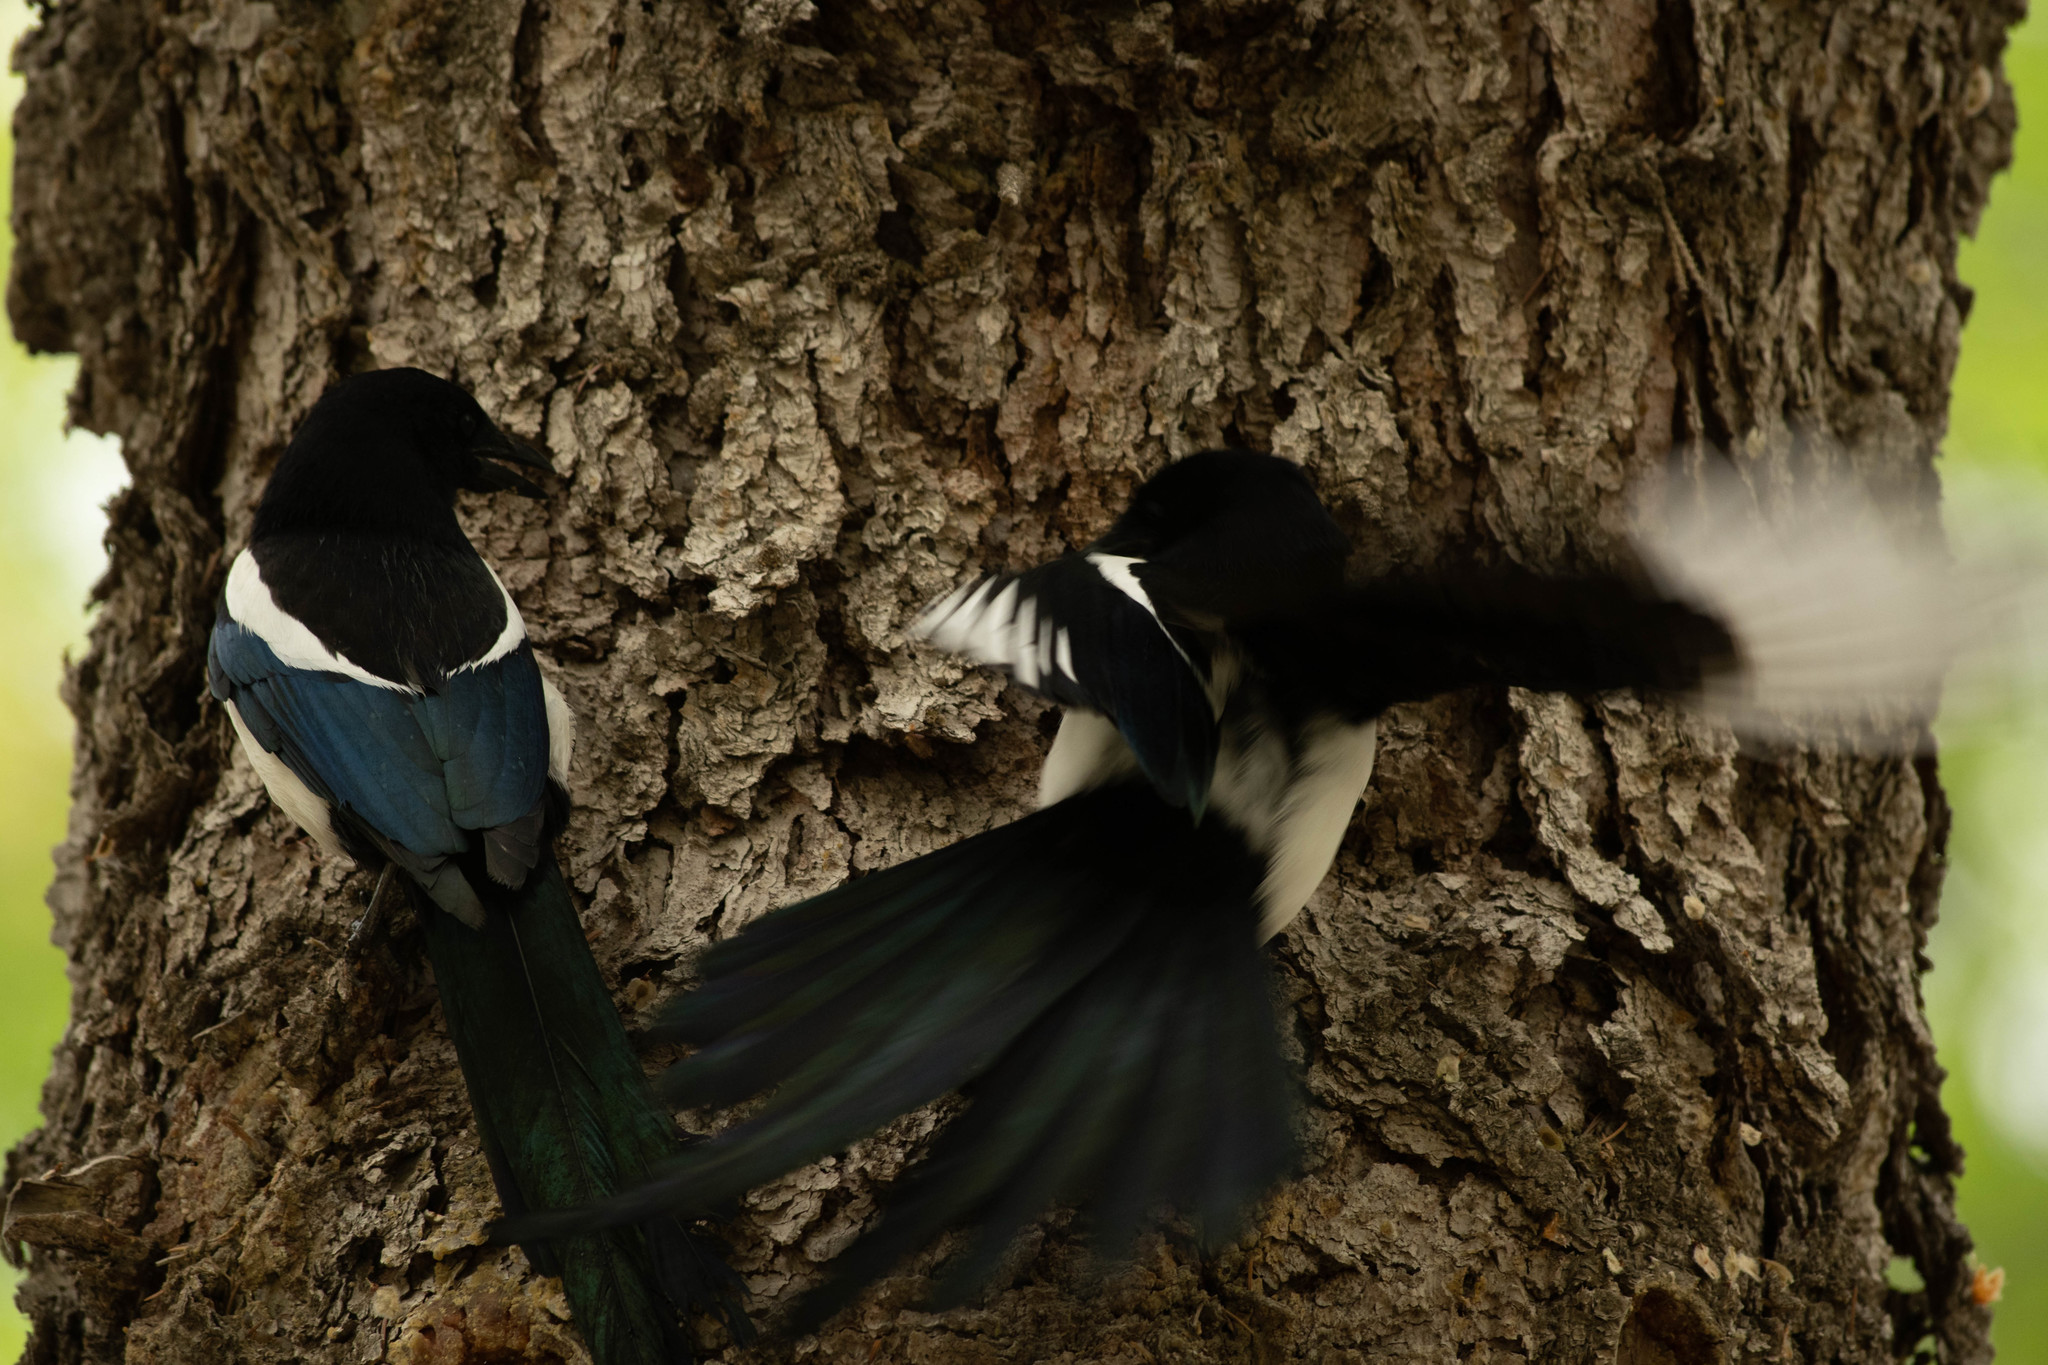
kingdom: Animalia
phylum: Chordata
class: Aves
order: Passeriformes
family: Corvidae
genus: Pica
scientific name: Pica hudsonia
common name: Black-billed magpie
